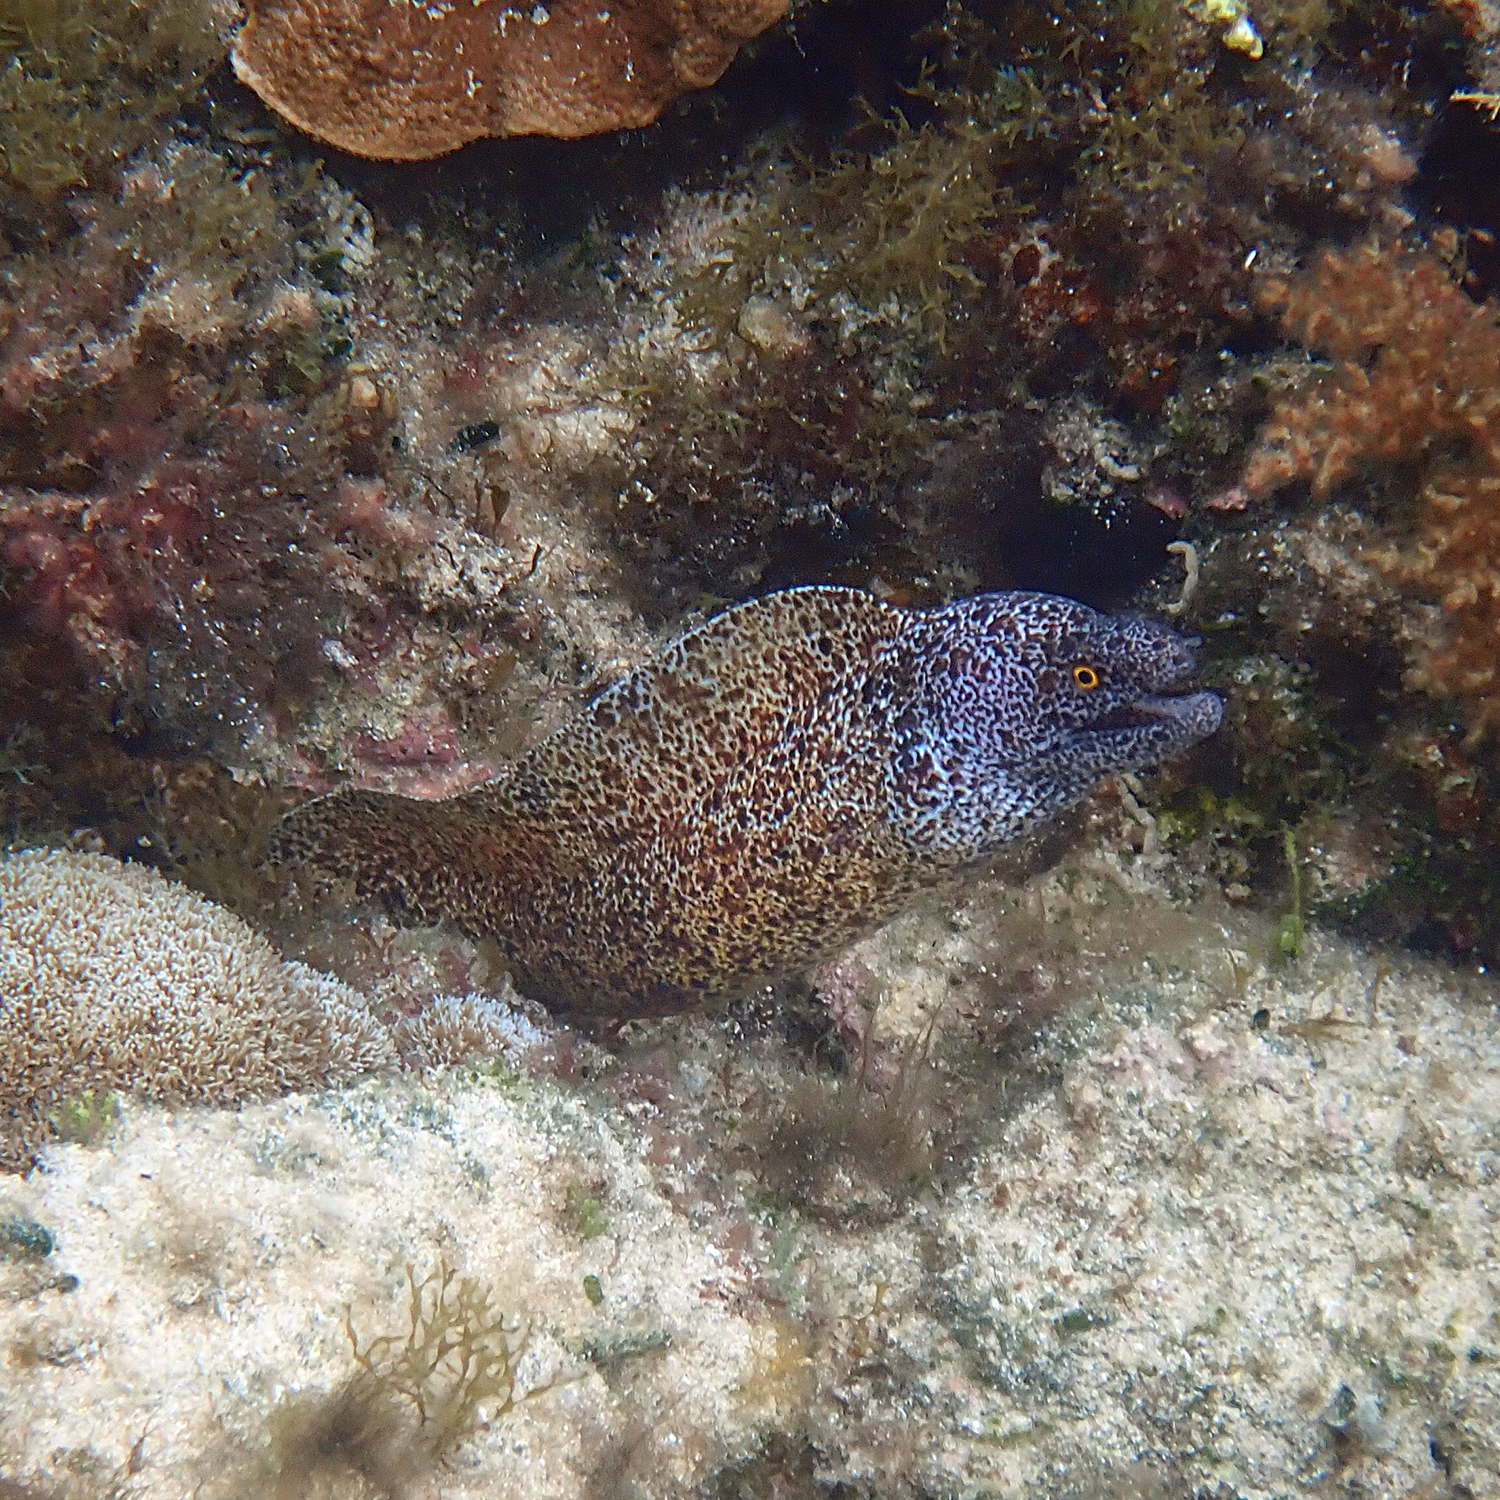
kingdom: Animalia
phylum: Chordata
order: Anguilliformes
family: Muraenidae
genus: Gymnothorax
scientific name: Gymnothorax annasona
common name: Lord howe island moray
